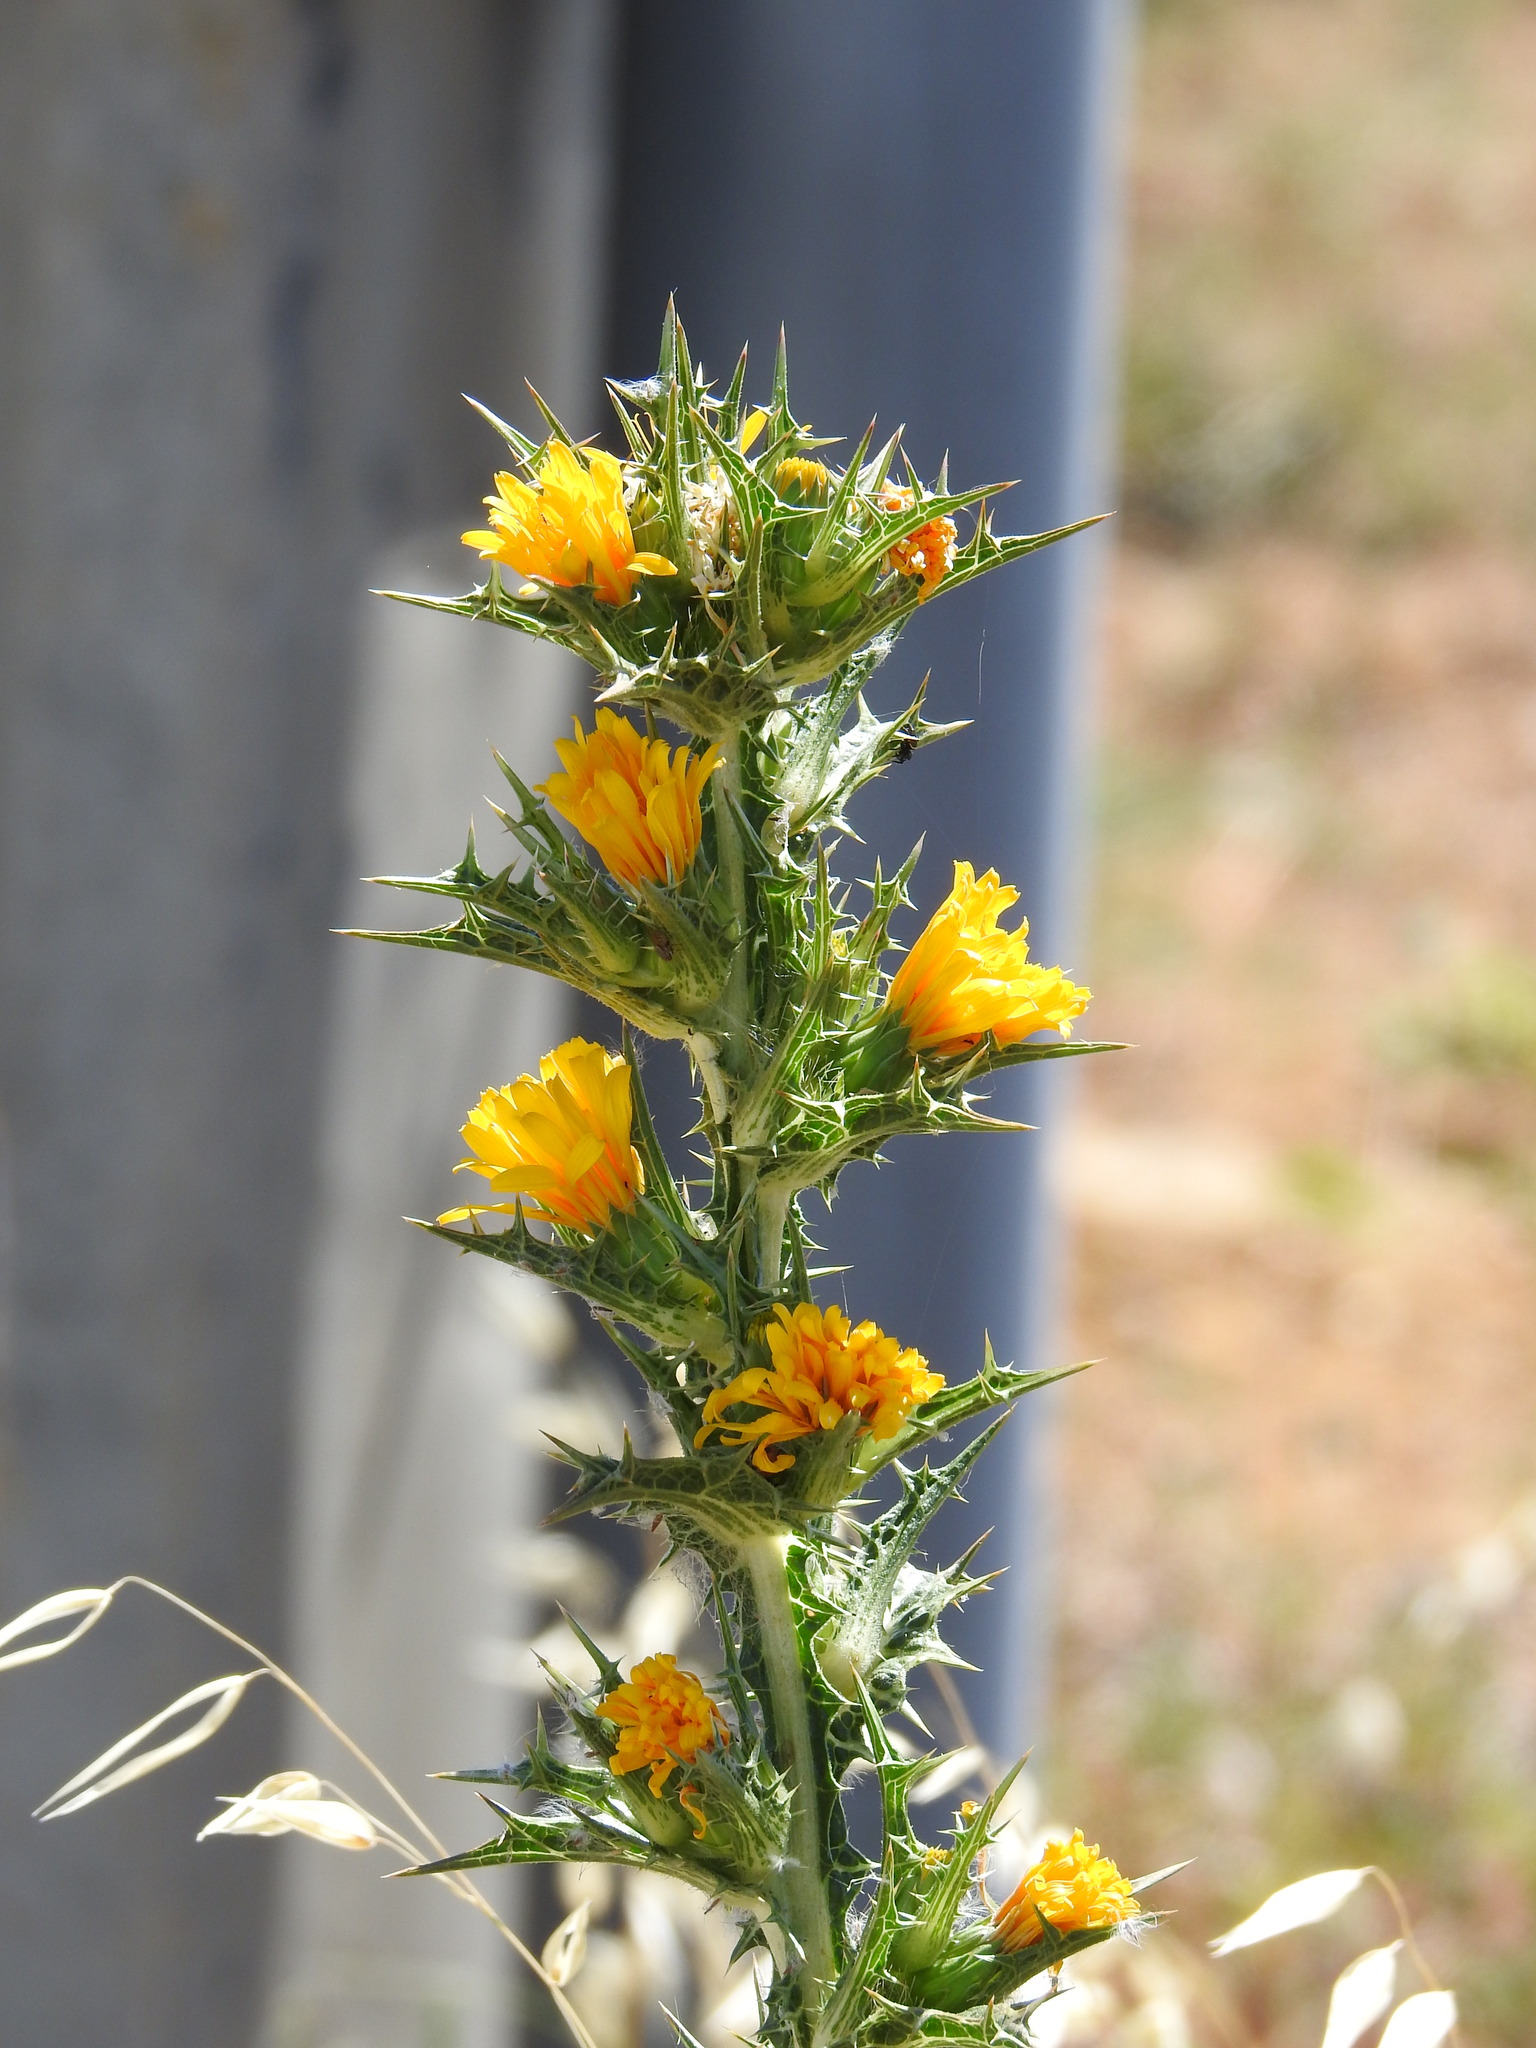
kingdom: Plantae
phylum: Tracheophyta
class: Magnoliopsida
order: Asterales
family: Asteraceae
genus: Scolymus
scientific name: Scolymus hispanicus
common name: Golden thistle
